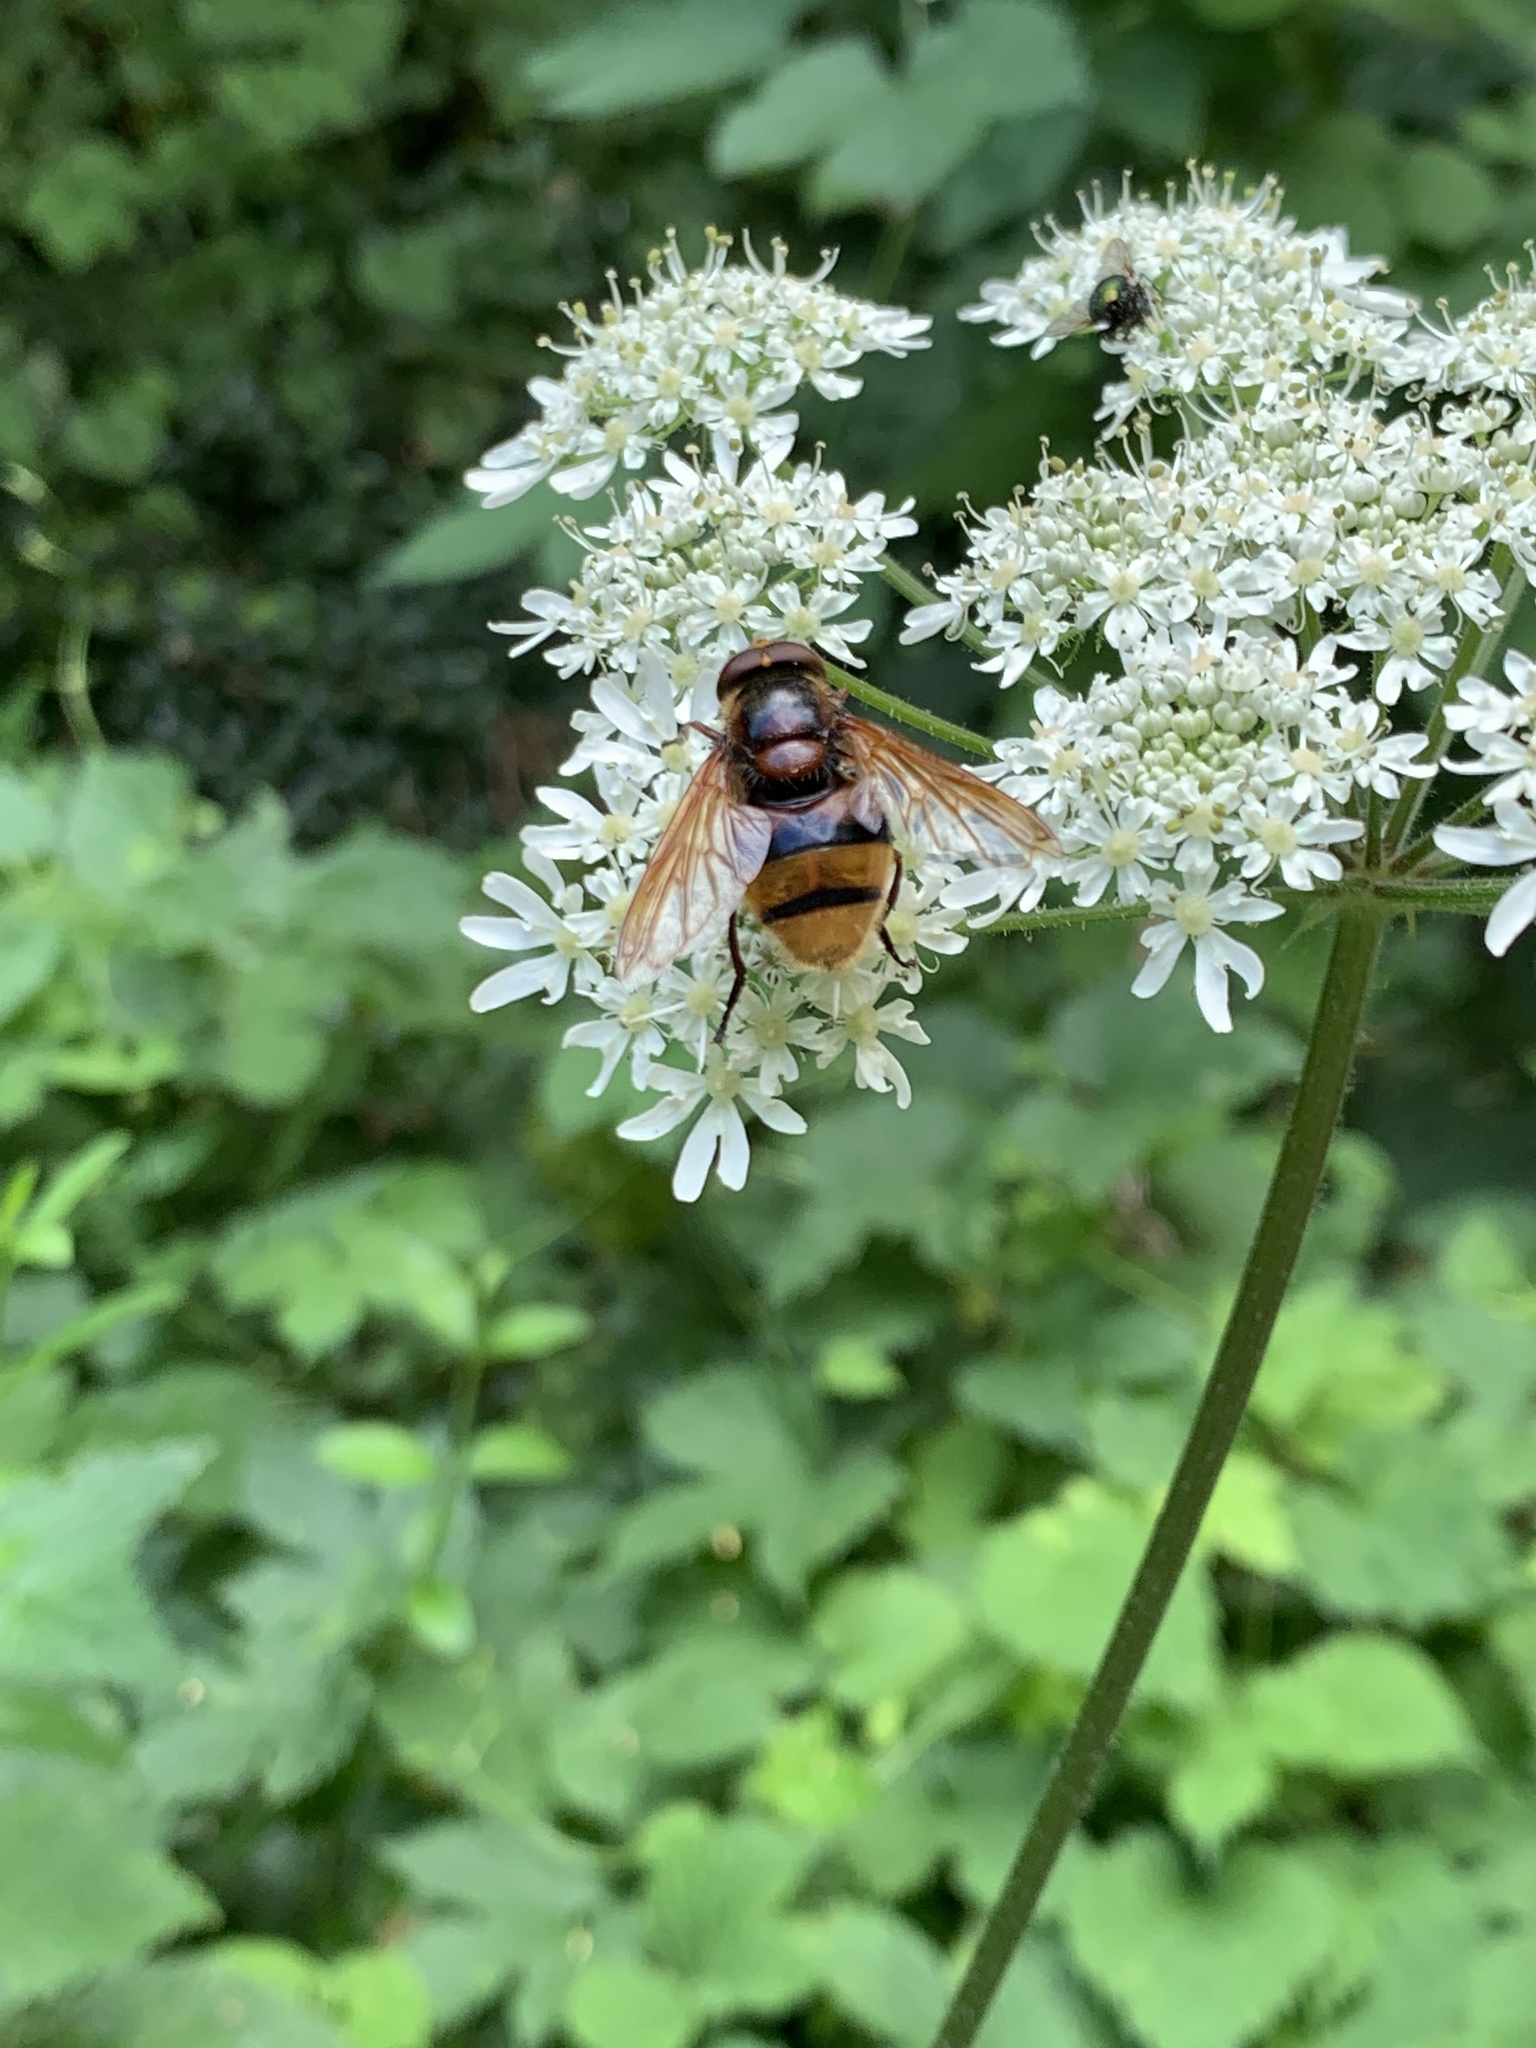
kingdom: Animalia
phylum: Arthropoda
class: Insecta
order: Diptera
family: Syrphidae
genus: Volucella
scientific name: Volucella zonaria
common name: Hornet hoverfly
